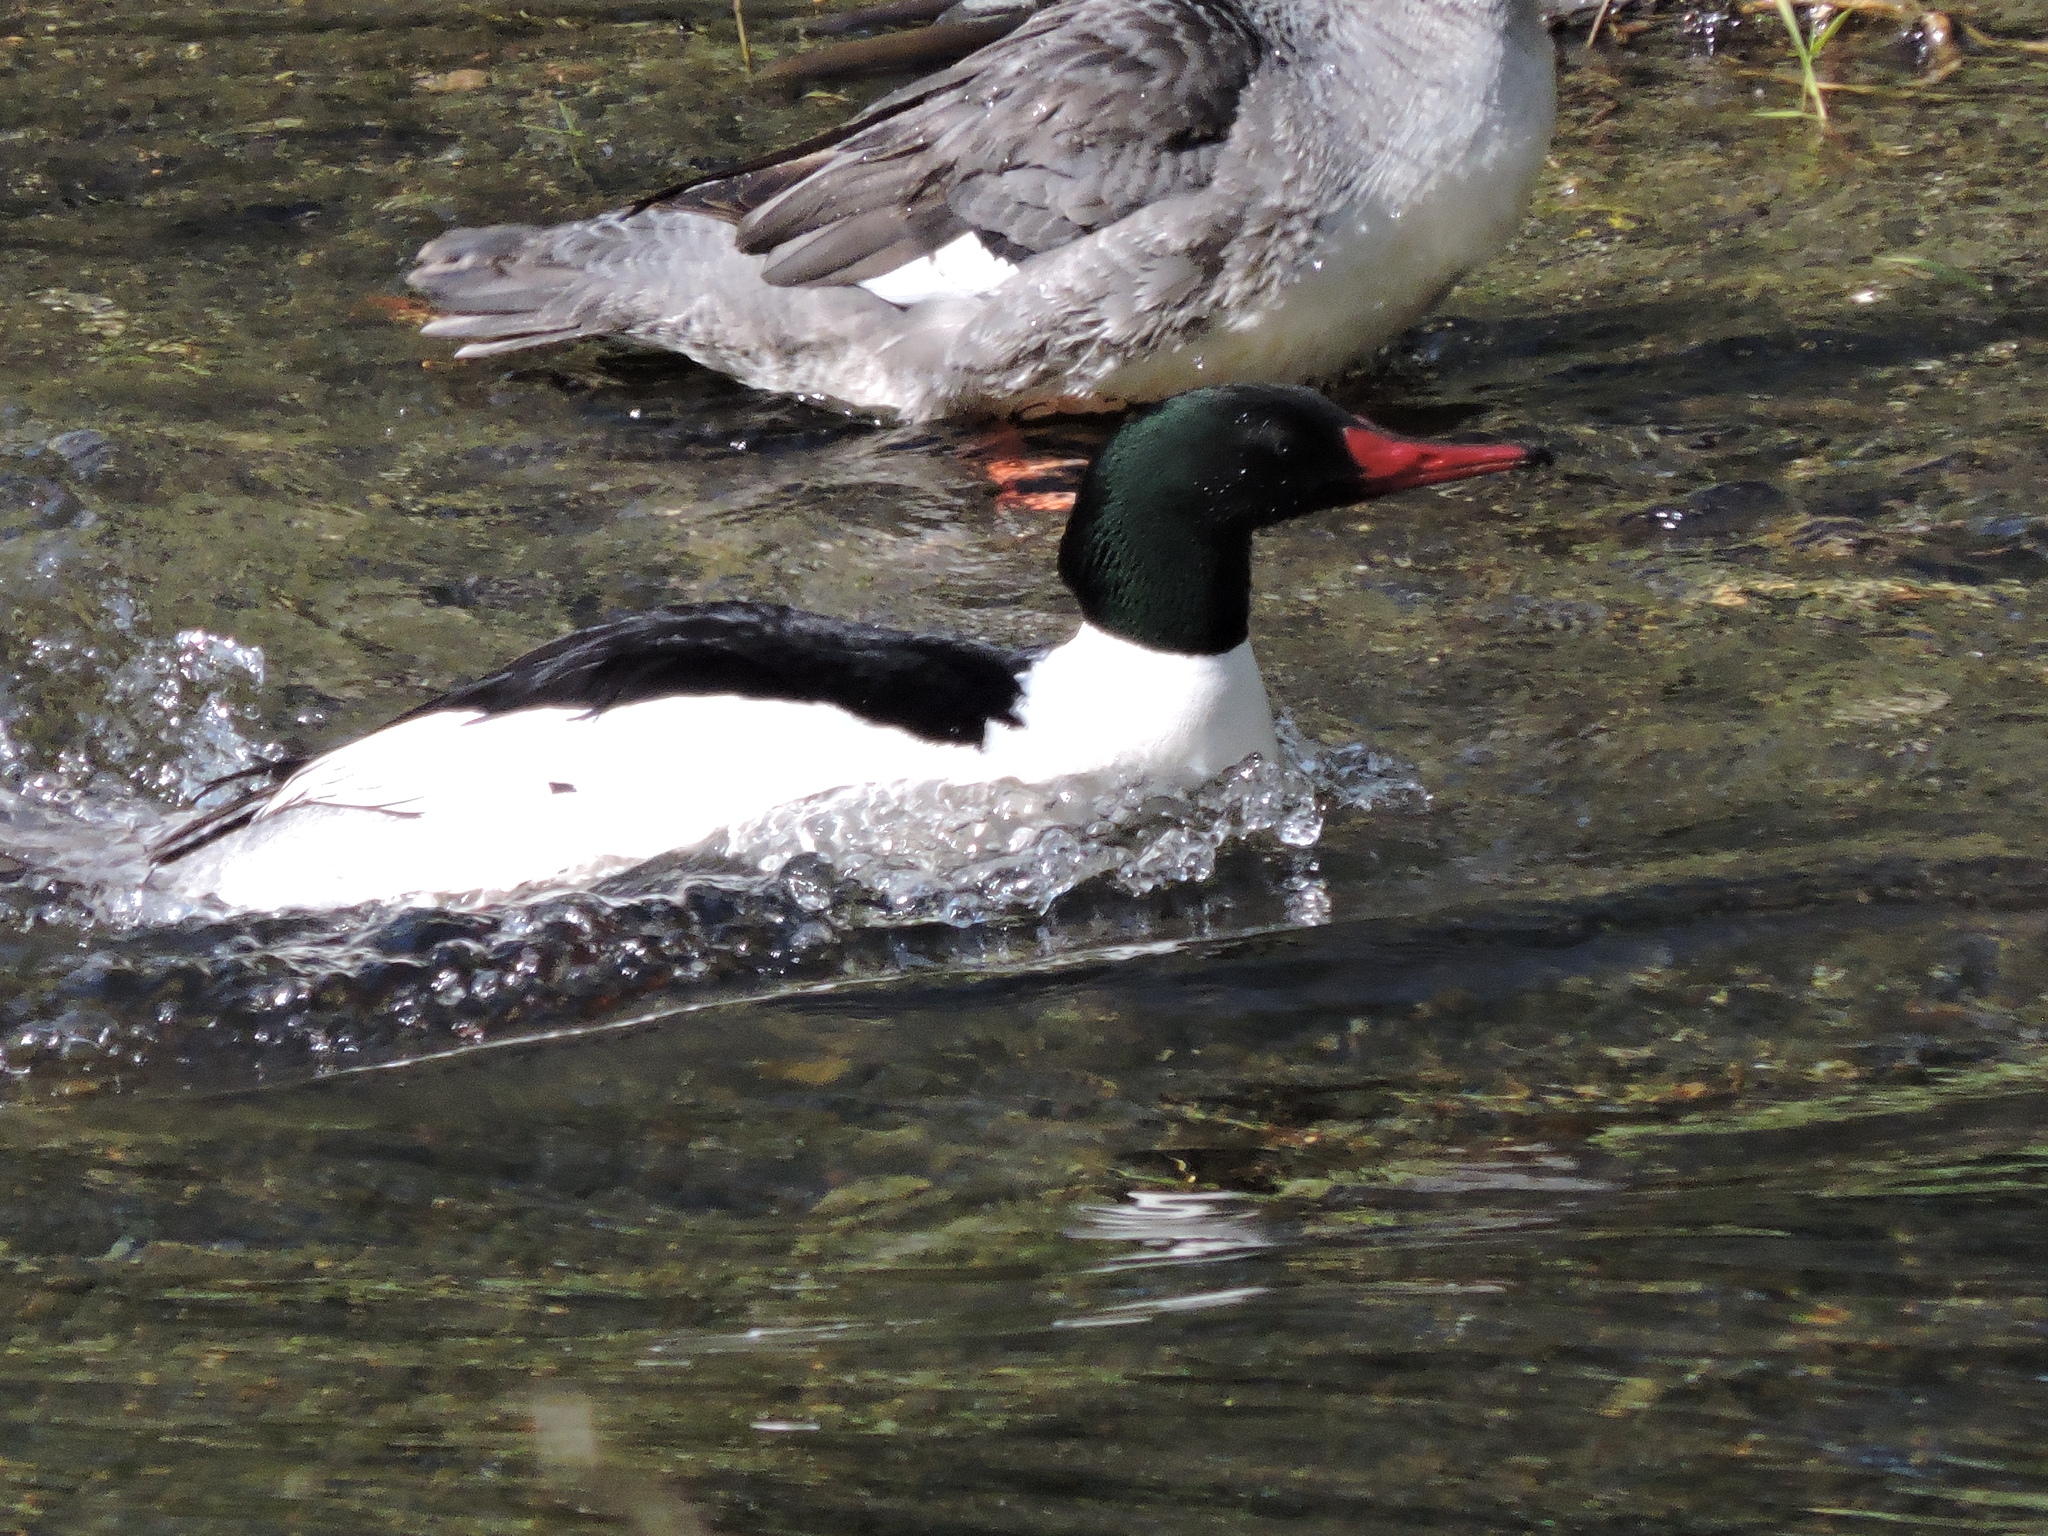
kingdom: Animalia
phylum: Chordata
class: Aves
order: Anseriformes
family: Anatidae
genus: Mergus
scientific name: Mergus merganser
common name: Common merganser
